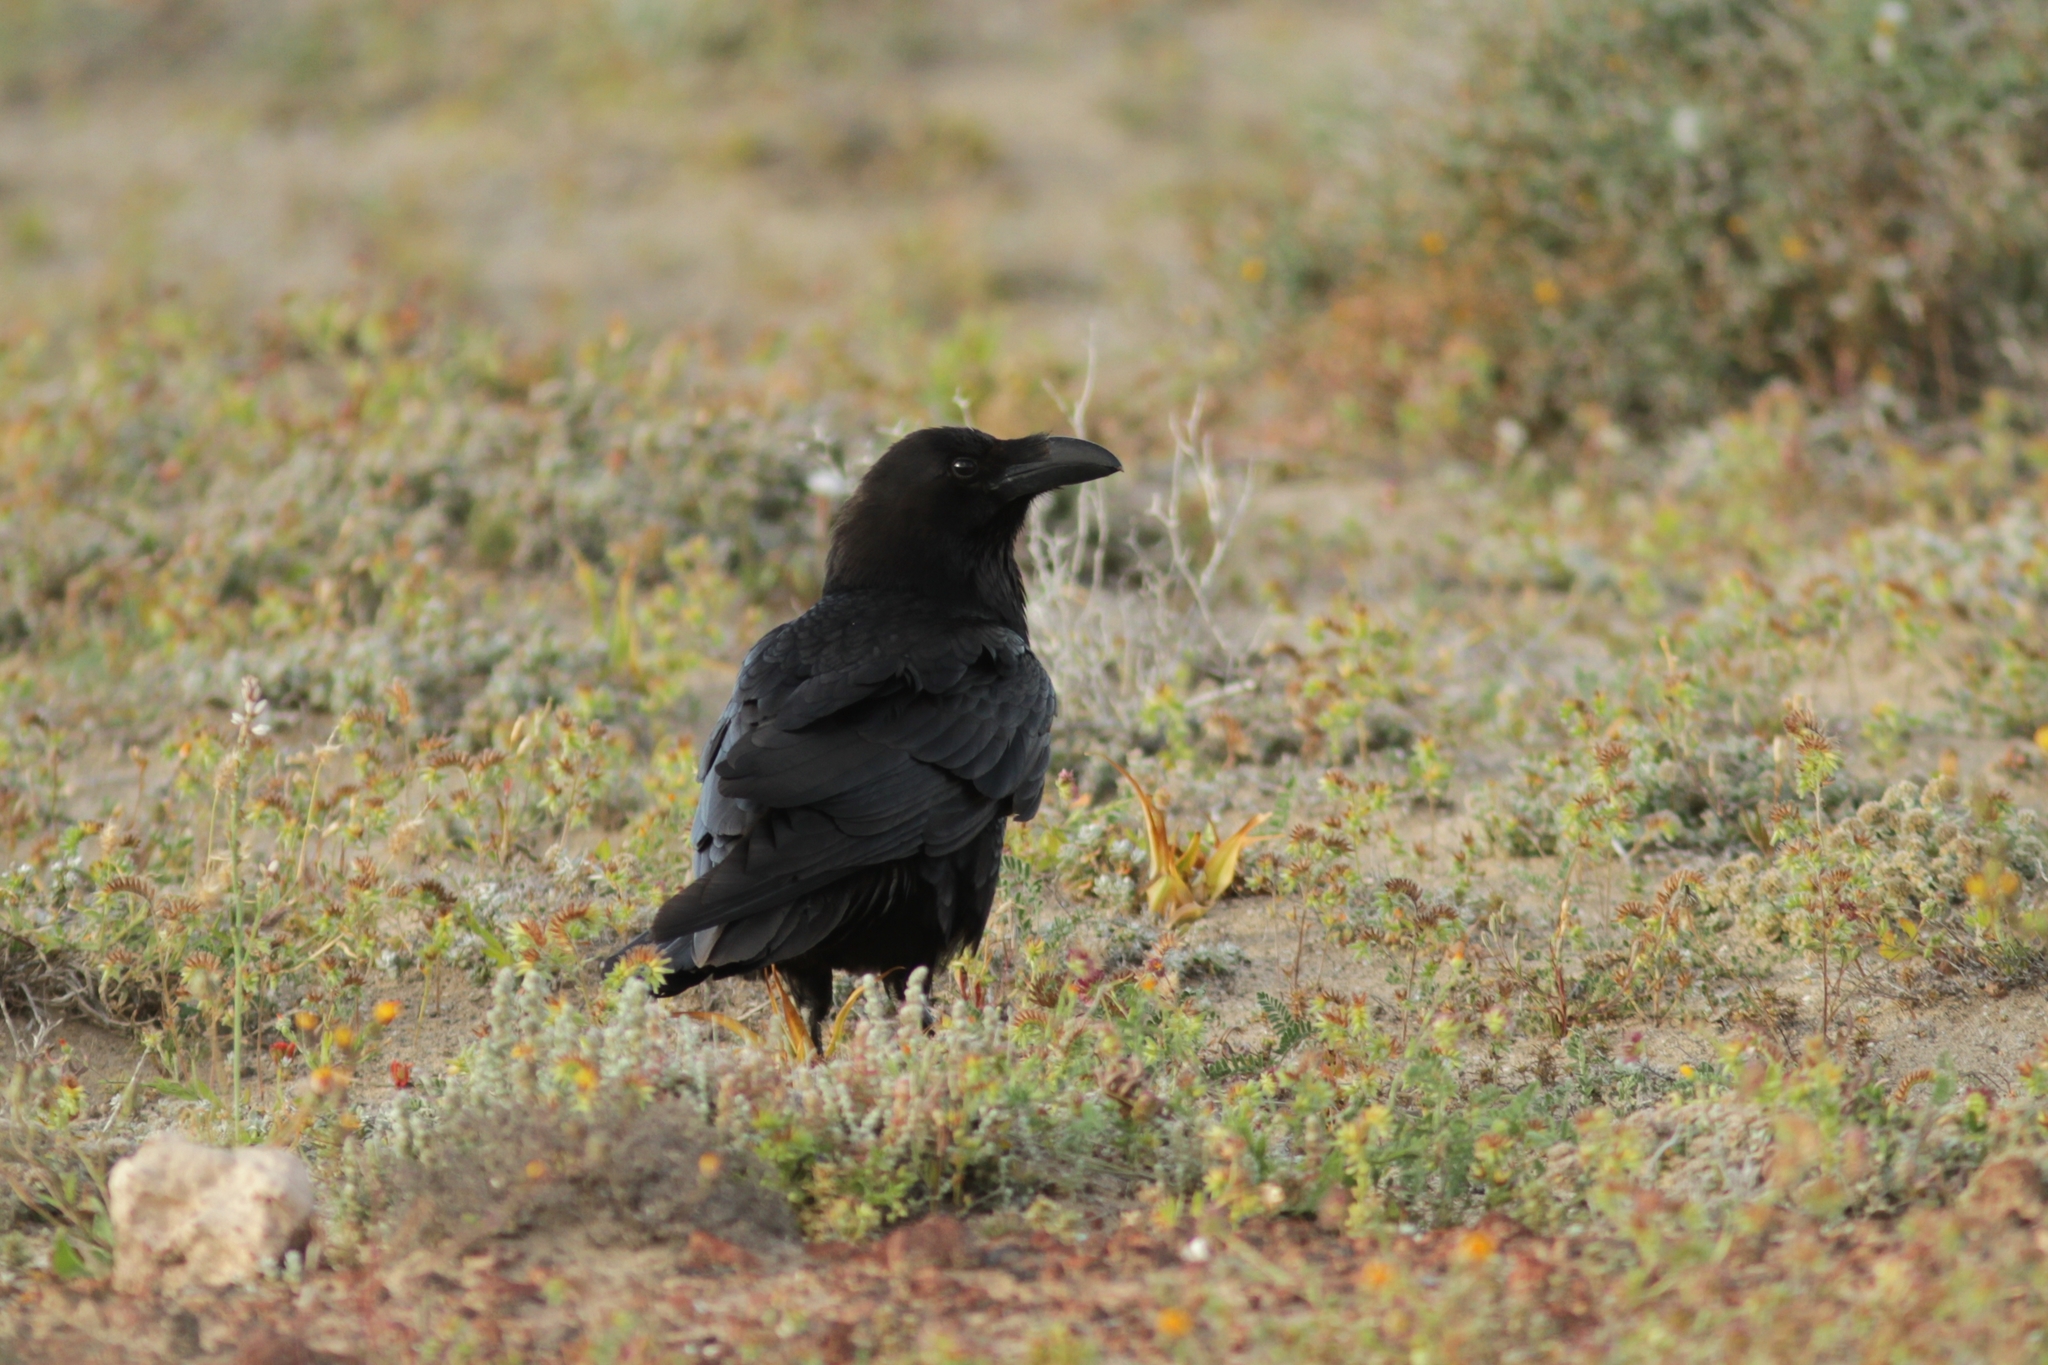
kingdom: Animalia
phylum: Chordata
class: Aves
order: Passeriformes
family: Corvidae
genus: Corvus
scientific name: Corvus corax
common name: Common raven
